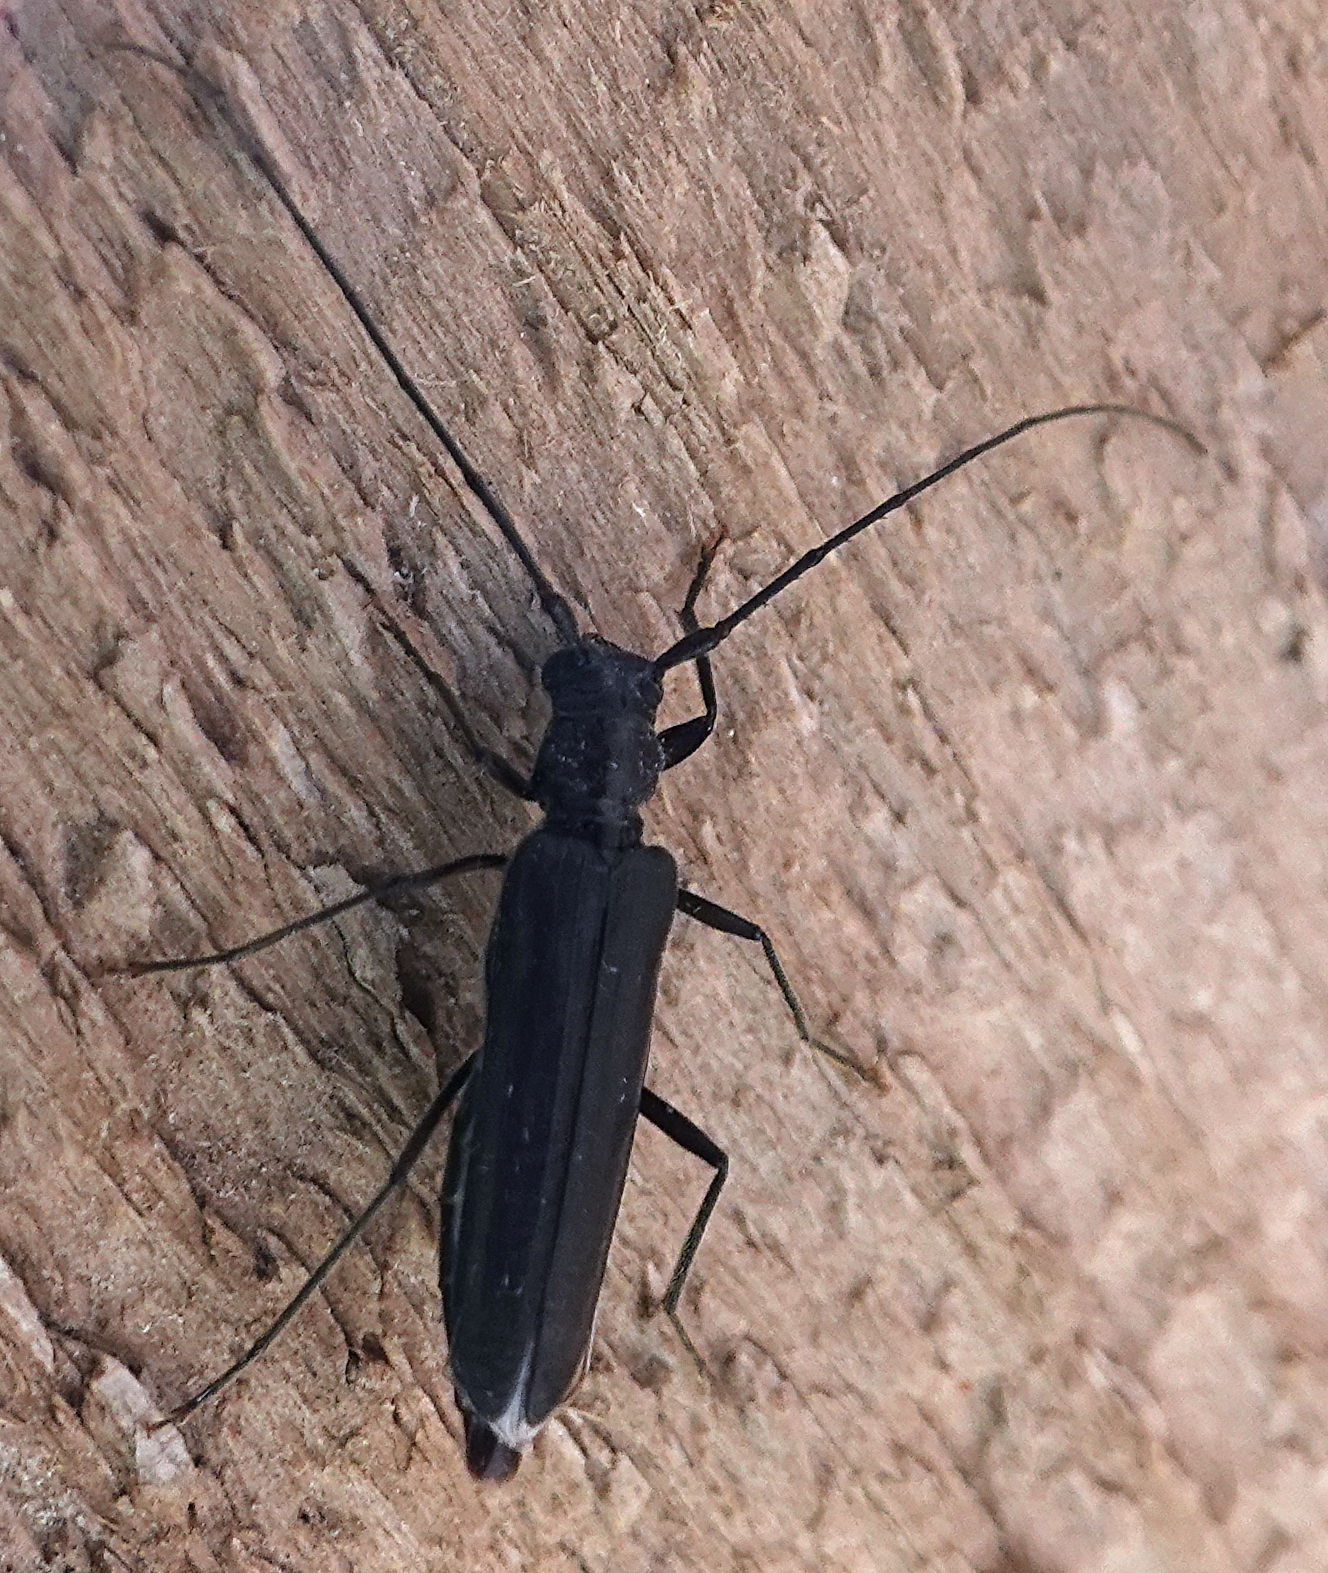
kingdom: Animalia
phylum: Arthropoda
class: Insecta
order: Coleoptera
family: Cerambycidae
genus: Oeme
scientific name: Oeme costata
